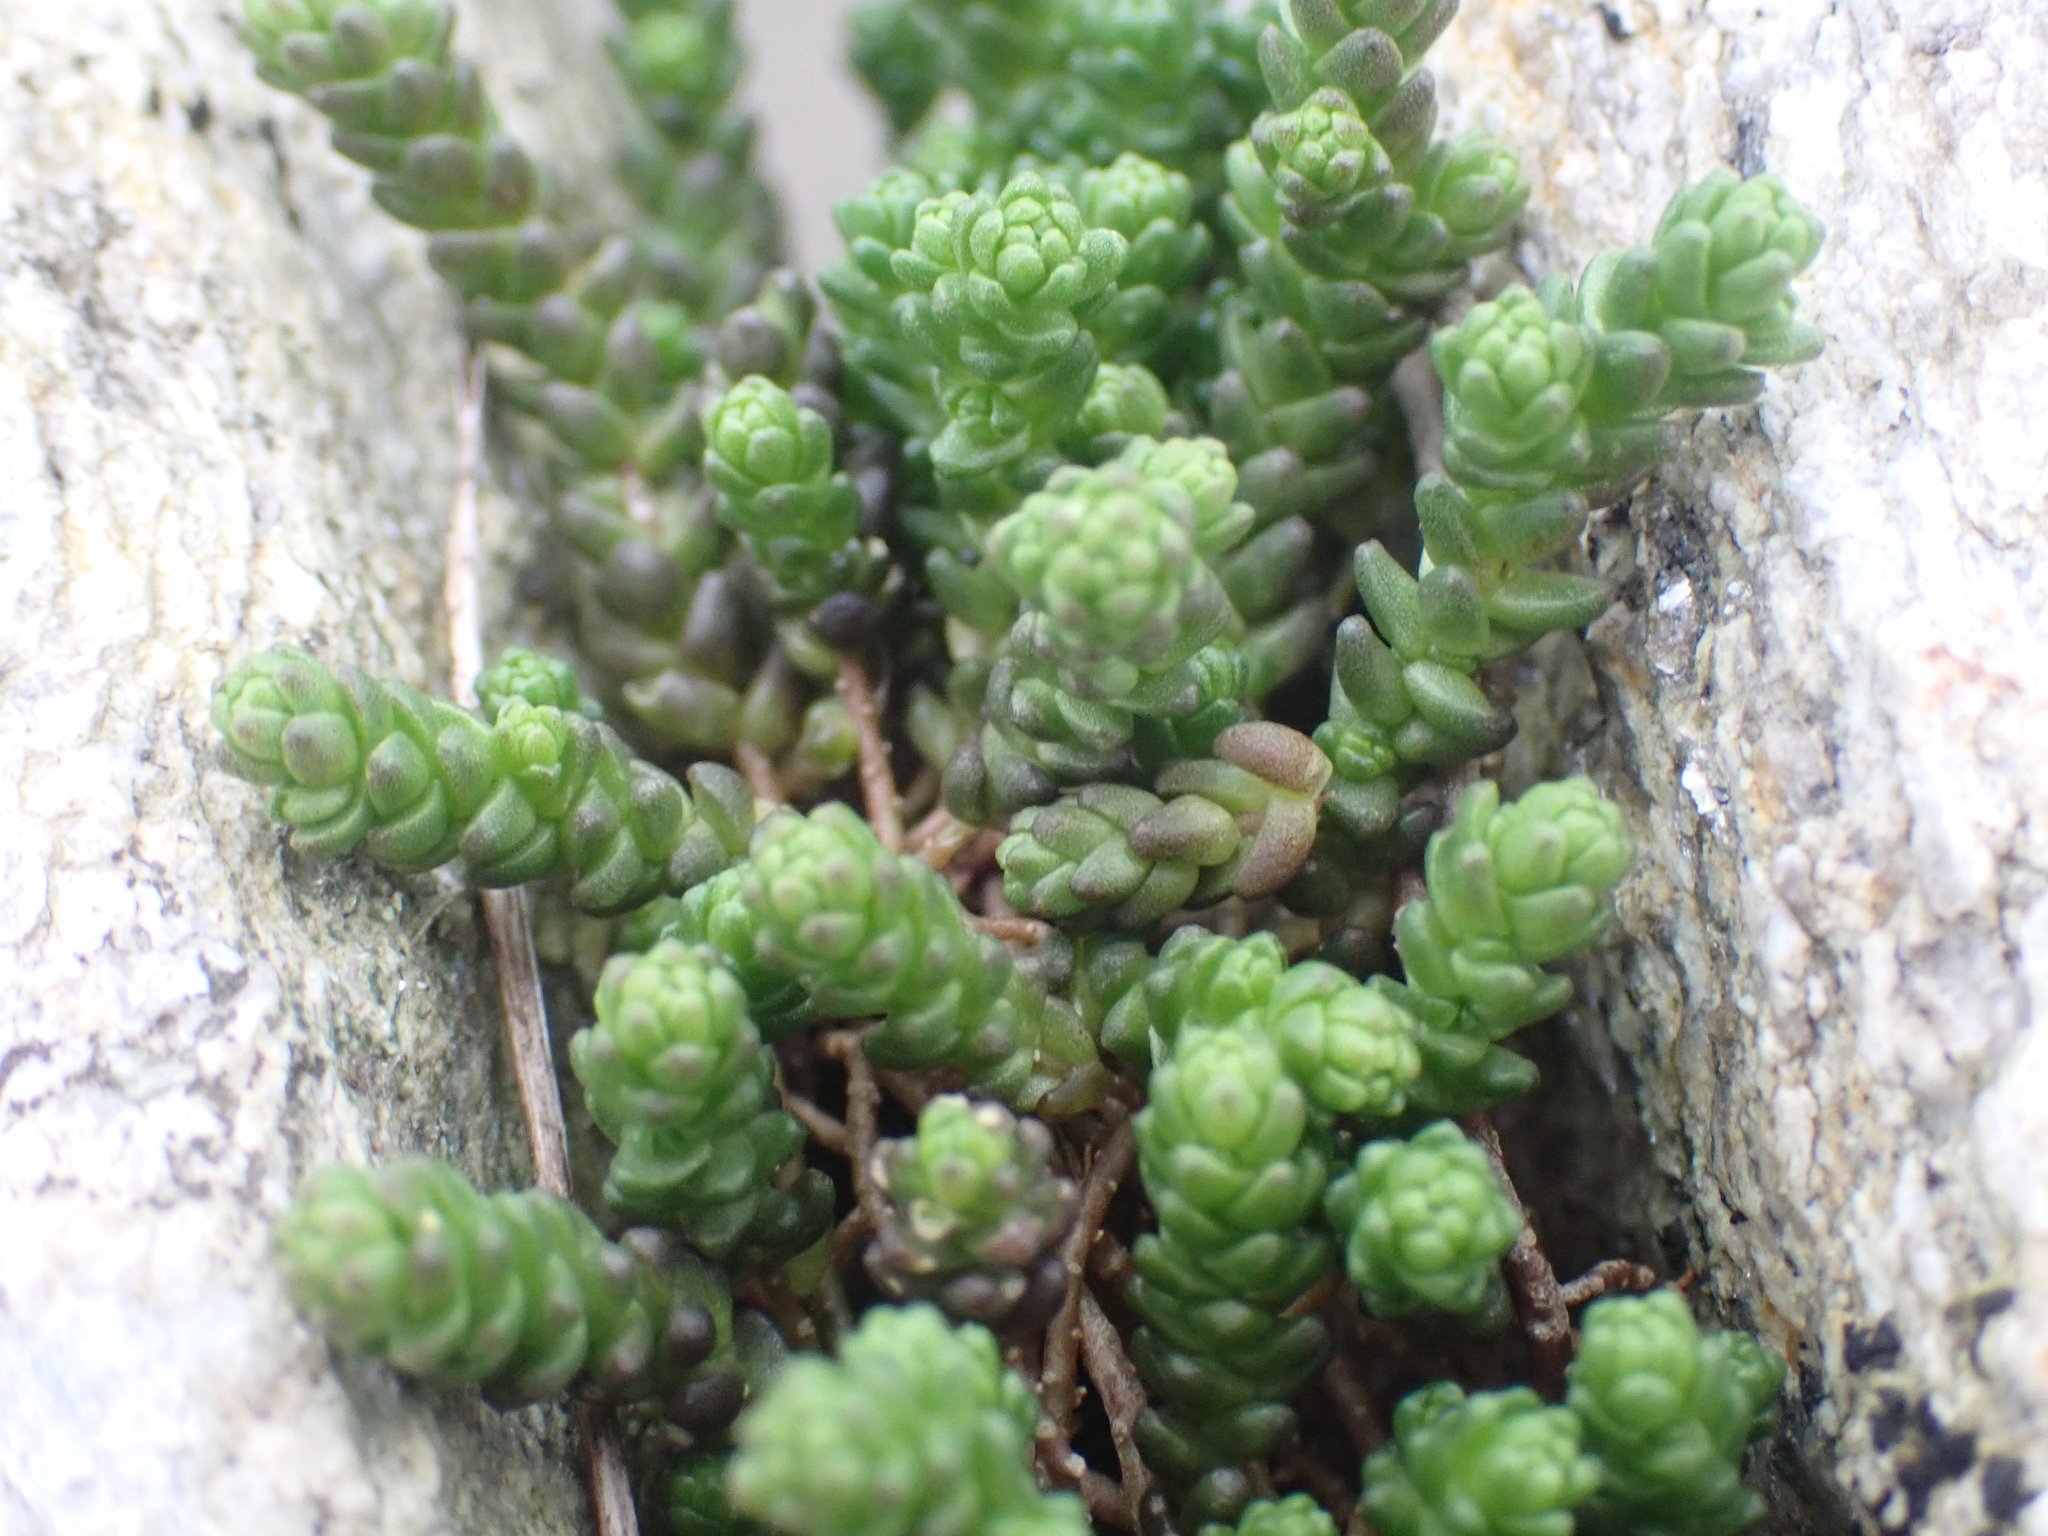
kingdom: Plantae
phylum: Tracheophyta
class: Magnoliopsida
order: Saxifragales
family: Crassulaceae
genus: Sedum
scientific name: Sedum acre
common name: Biting stonecrop
